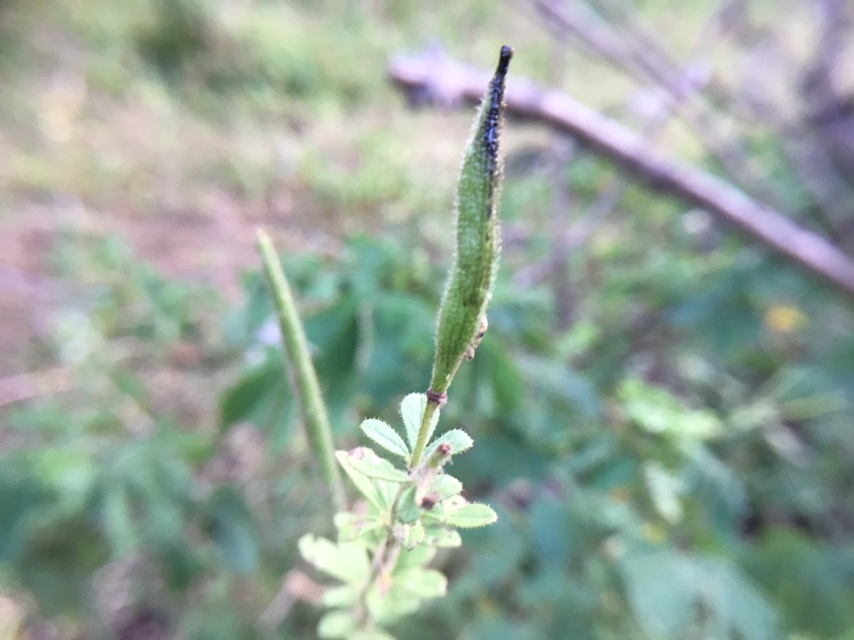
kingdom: Plantae
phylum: Tracheophyta
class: Magnoliopsida
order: Brassicales
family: Cleomaceae
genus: Arivela
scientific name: Arivela viscosa
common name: Asian spiderflower
